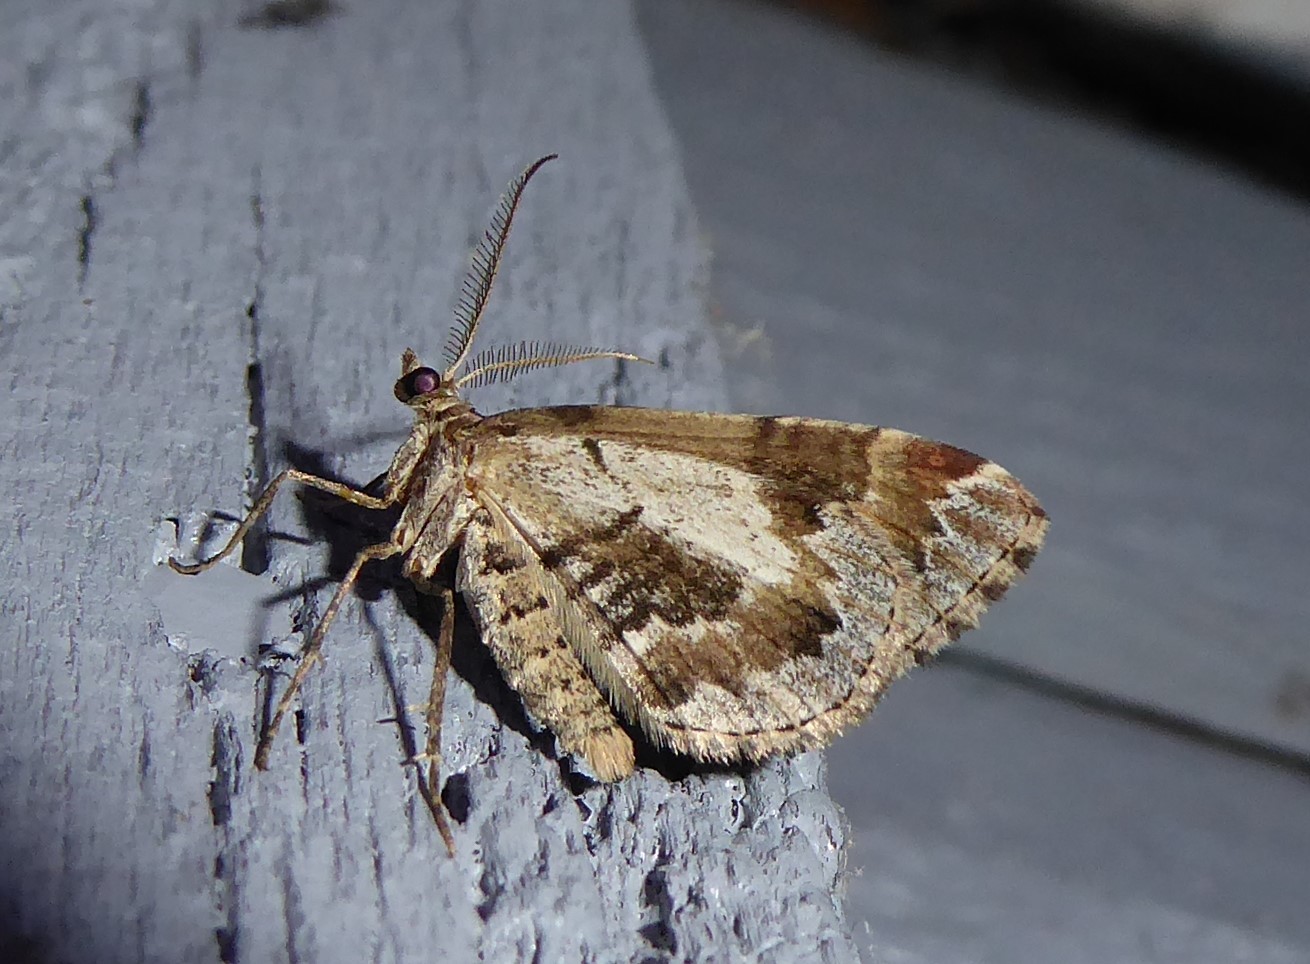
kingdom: Animalia
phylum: Arthropoda
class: Insecta
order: Lepidoptera
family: Geometridae
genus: Asaphodes
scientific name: Asaphodes aegrota
